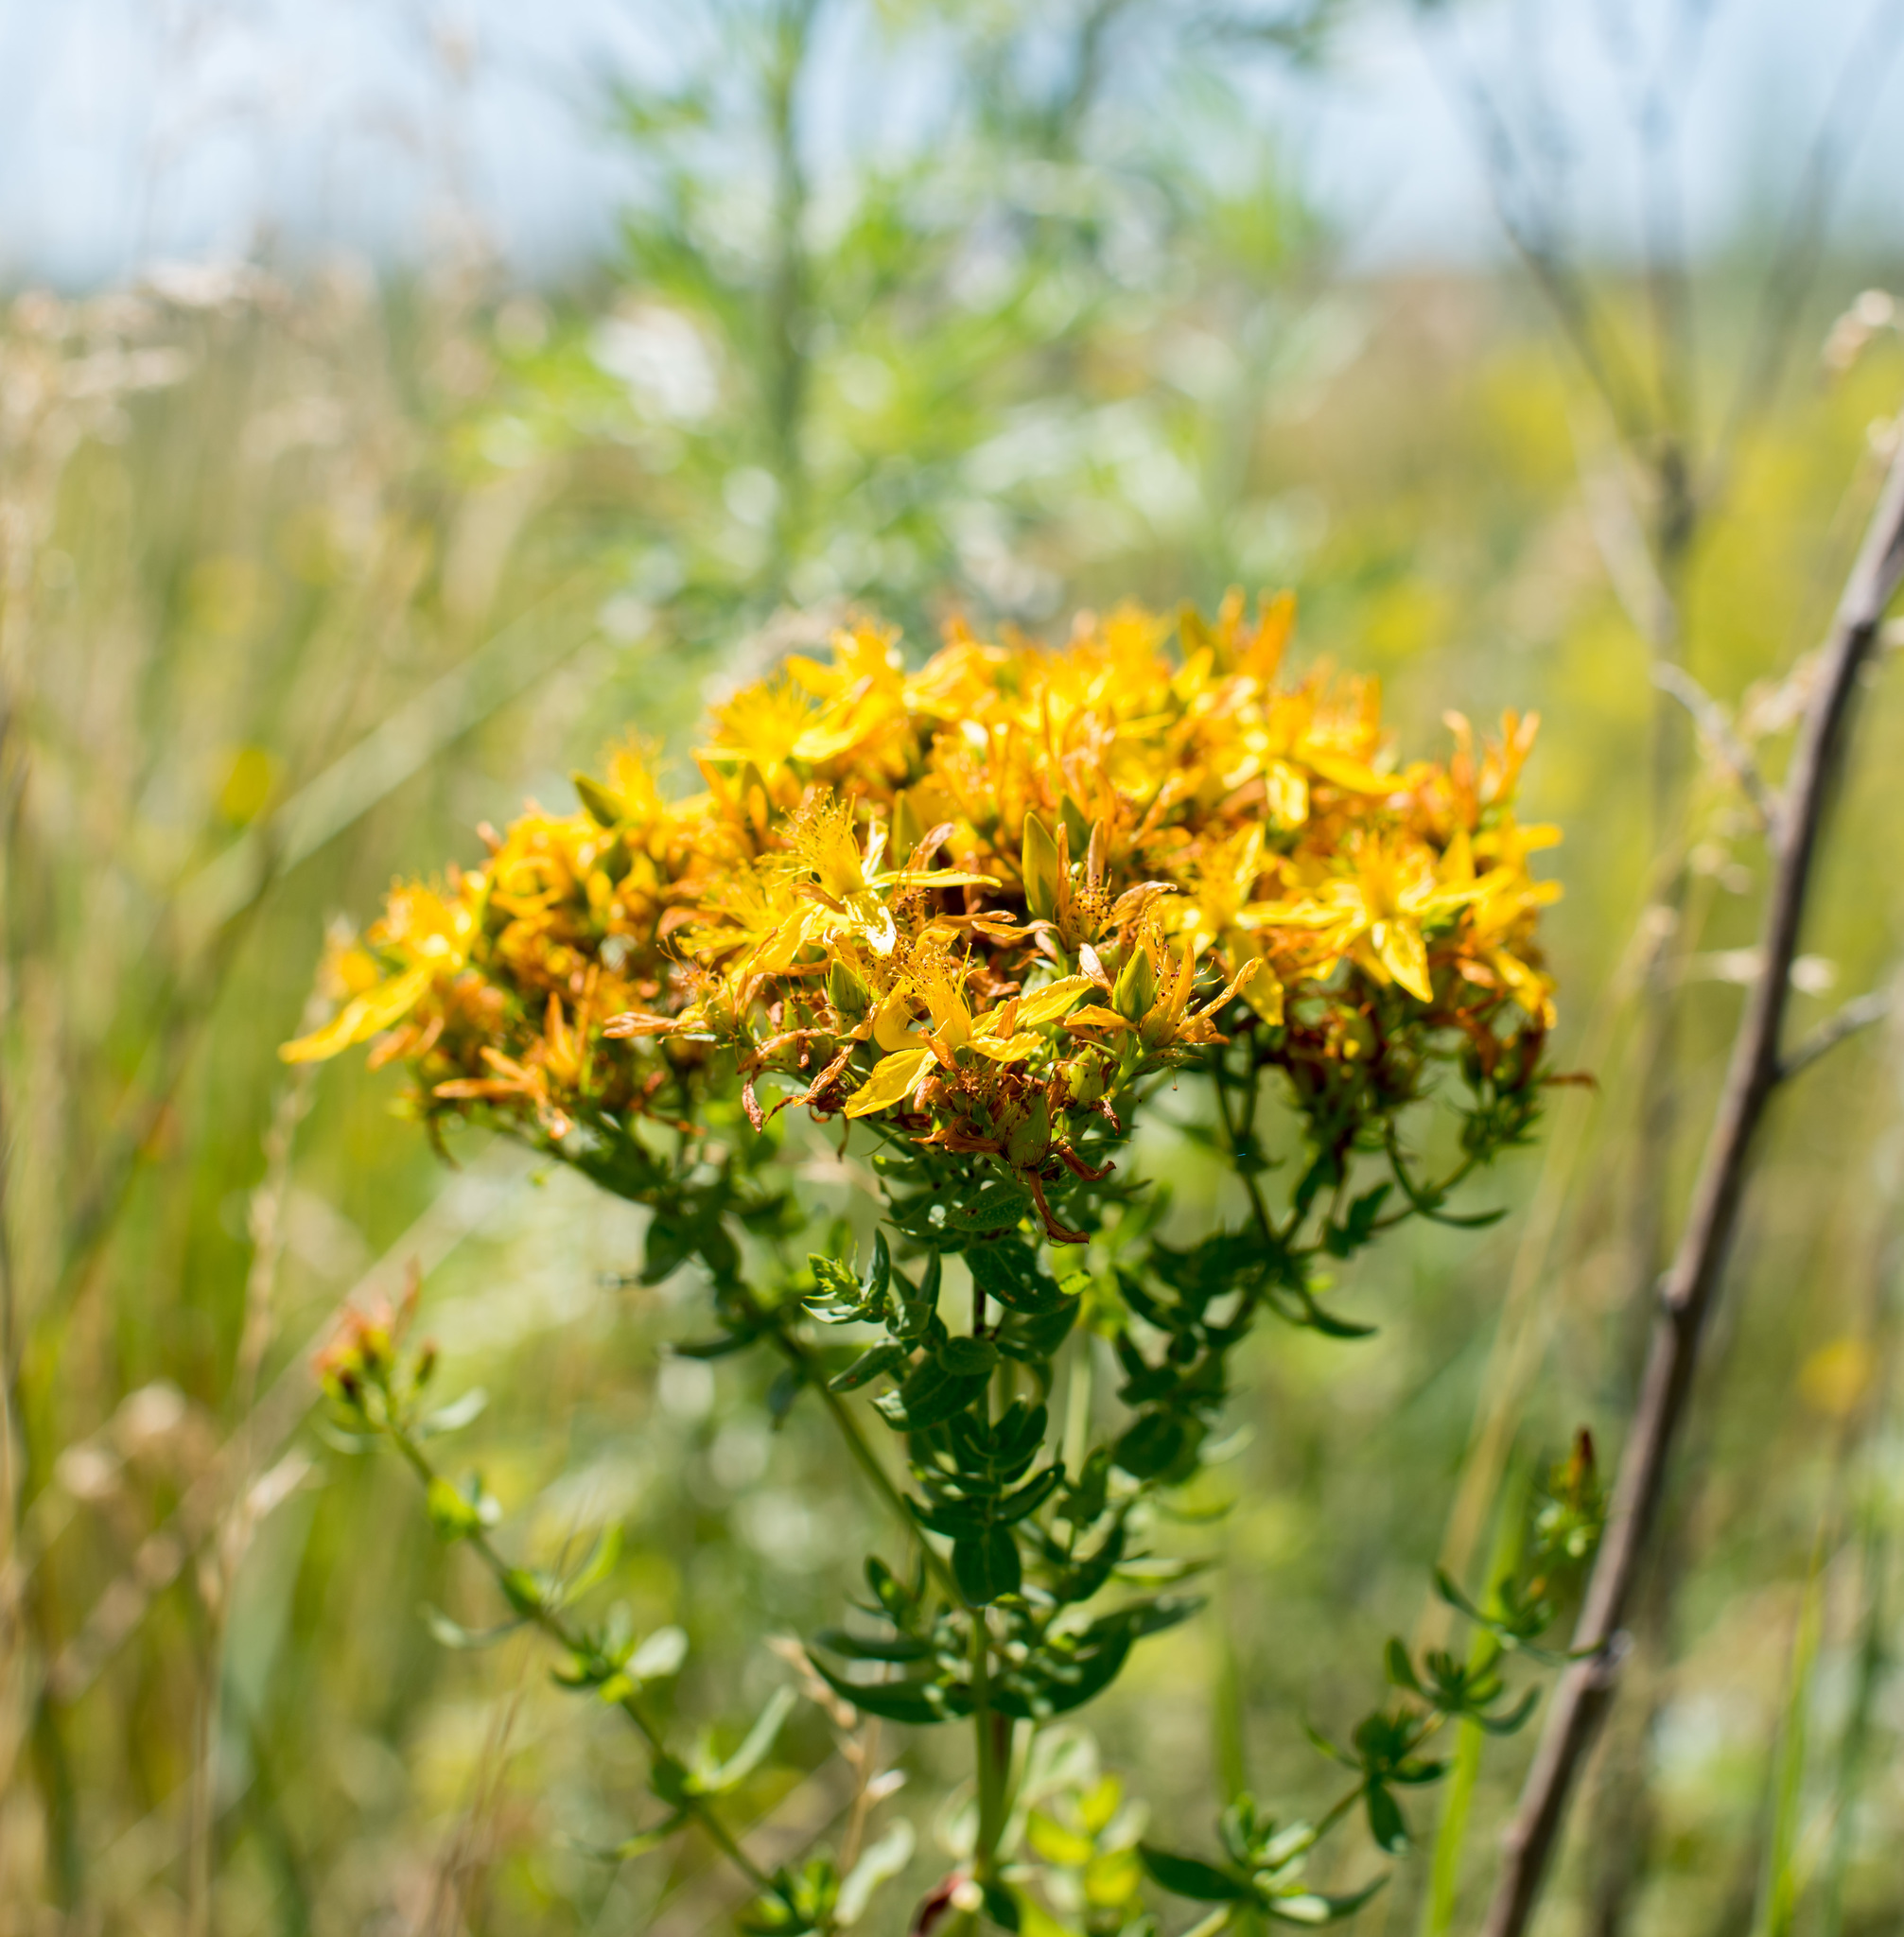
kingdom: Plantae
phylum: Tracheophyta
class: Magnoliopsida
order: Malpighiales
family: Hypericaceae
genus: Hypericum
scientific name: Hypericum perforatum
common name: Common st. johnswort
